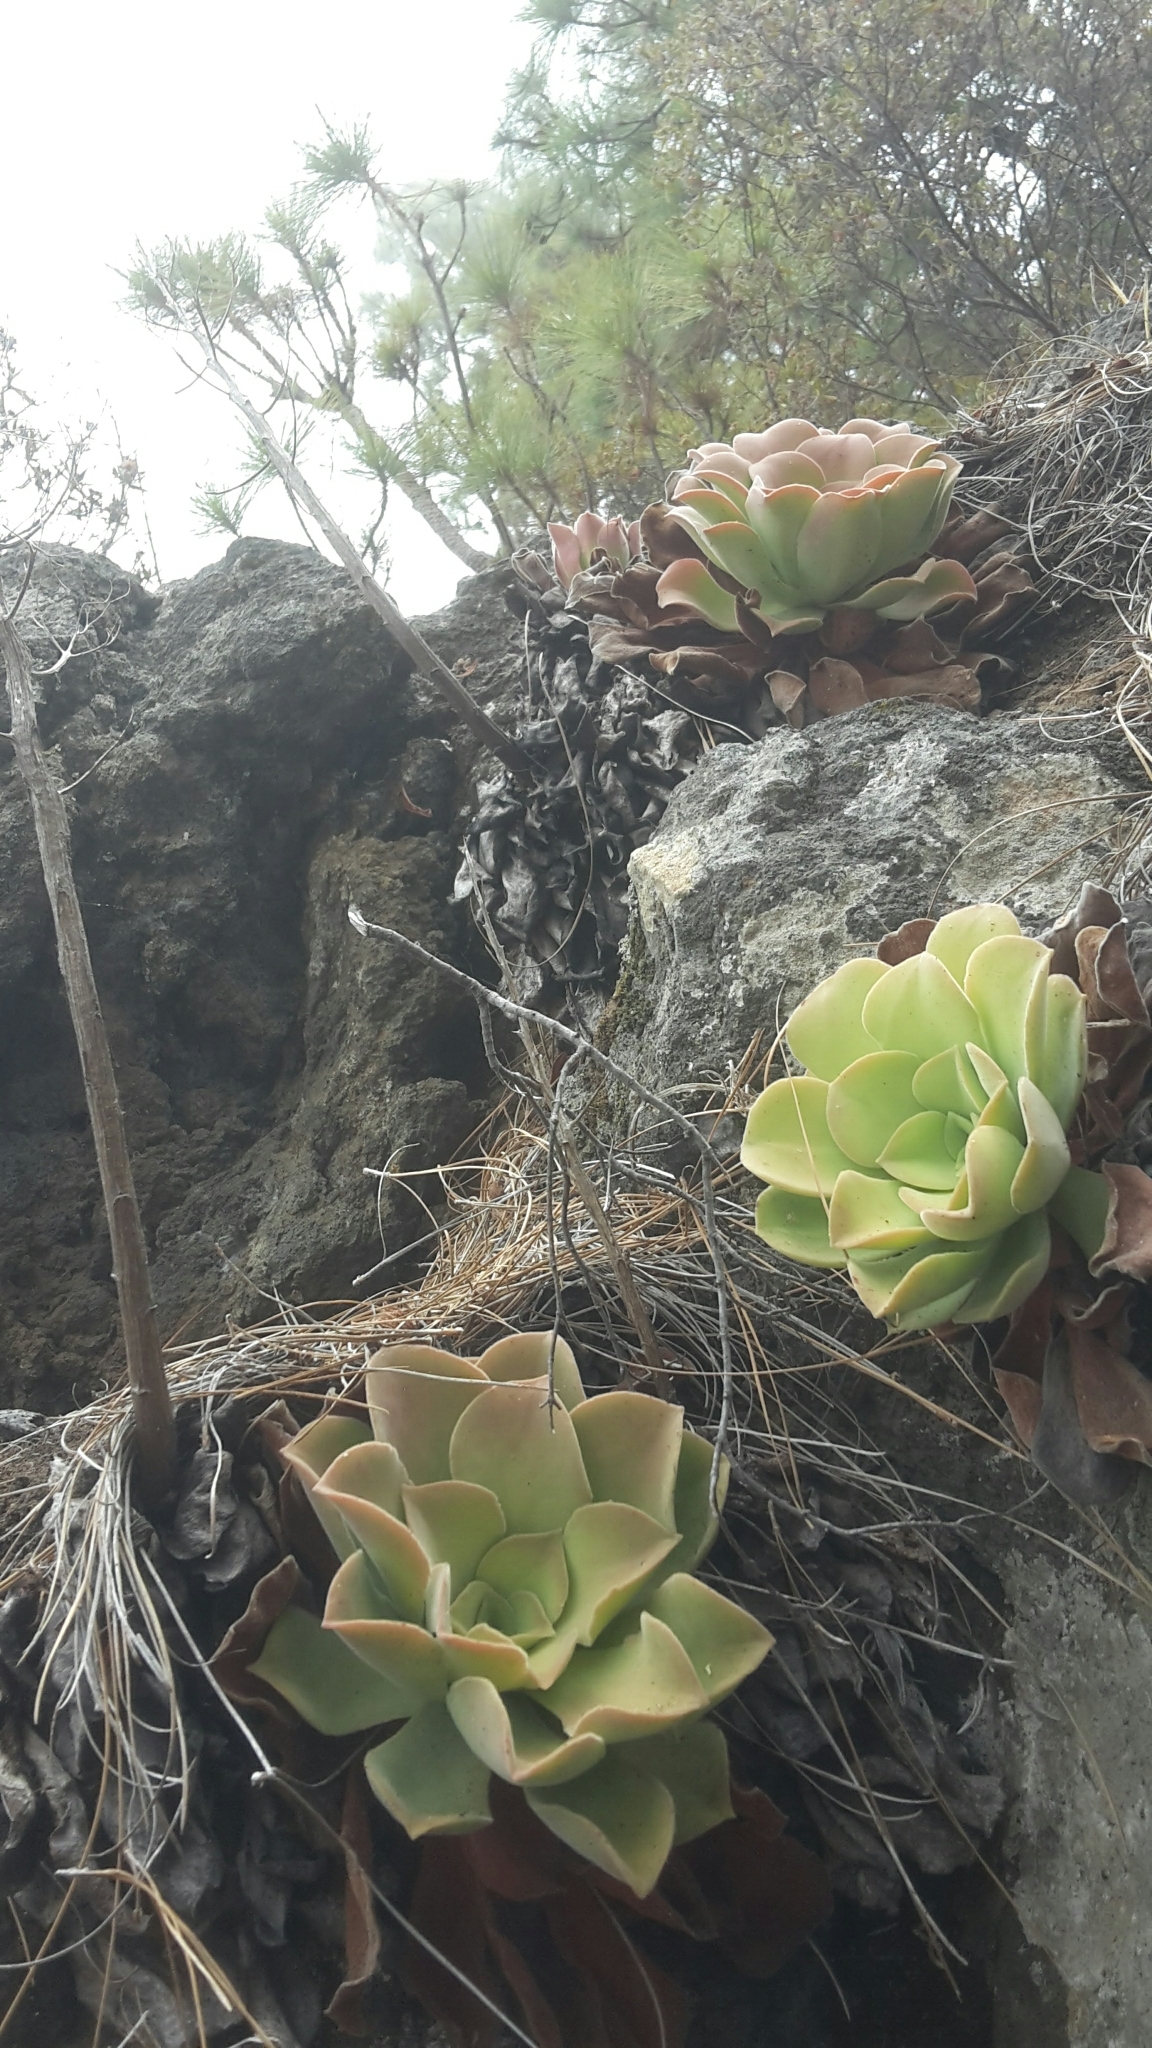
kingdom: Plantae
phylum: Tracheophyta
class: Magnoliopsida
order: Saxifragales
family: Crassulaceae
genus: Aeonium
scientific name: Aeonium canariense
